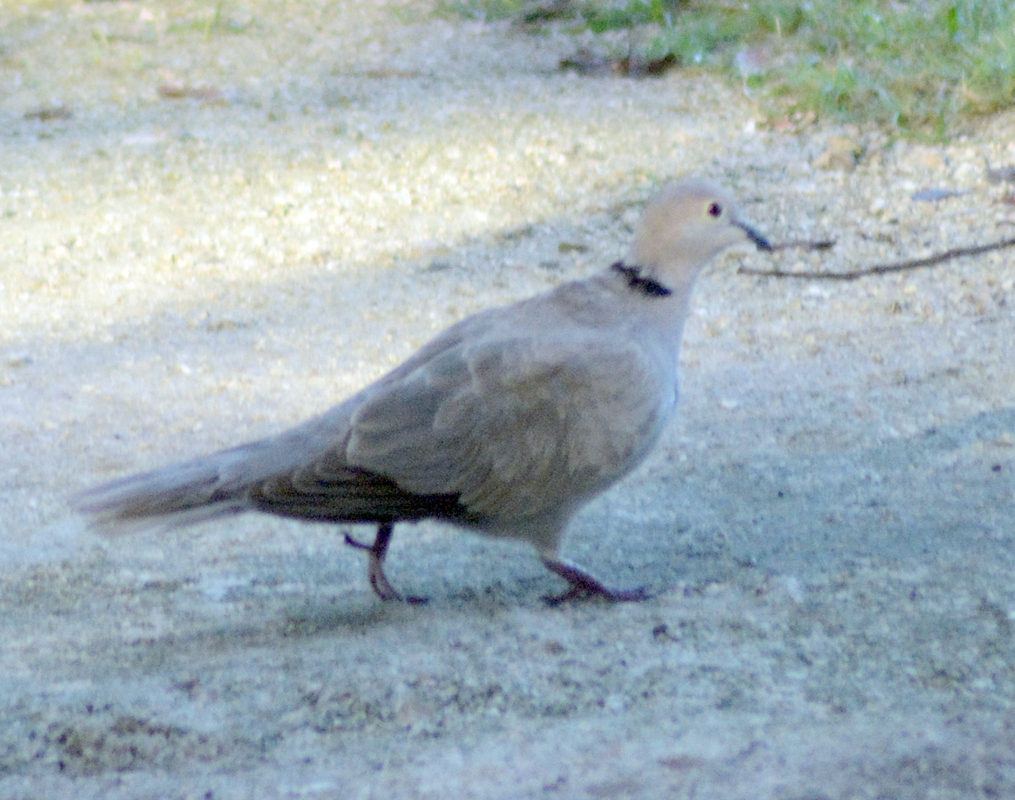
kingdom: Animalia
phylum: Chordata
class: Aves
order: Columbiformes
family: Columbidae
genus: Streptopelia
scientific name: Streptopelia decaocto
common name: Eurasian collared dove
